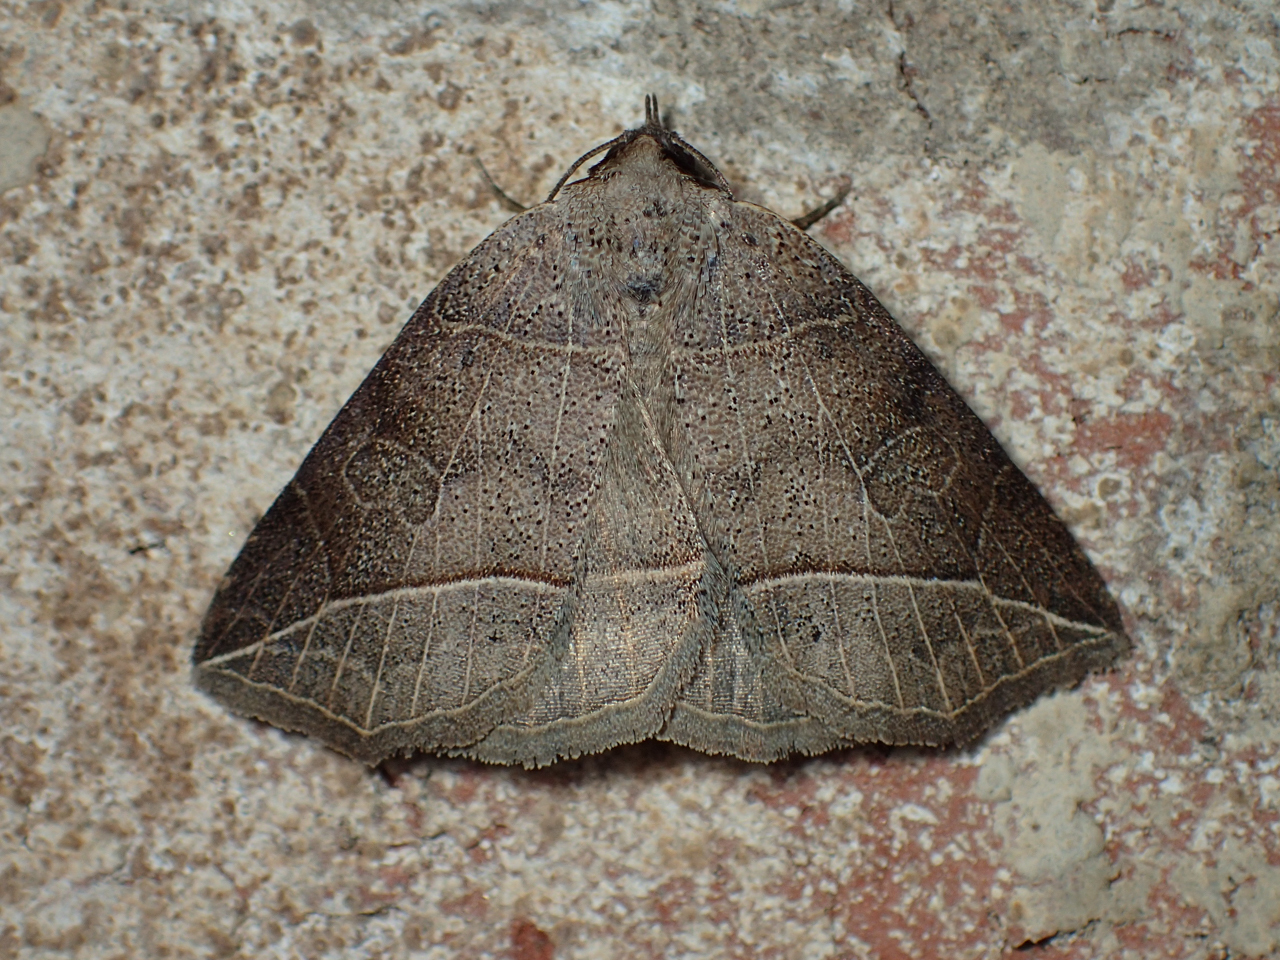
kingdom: Animalia
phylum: Arthropoda
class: Insecta
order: Lepidoptera
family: Erebidae
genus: Isogona
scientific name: Isogona tenuis
